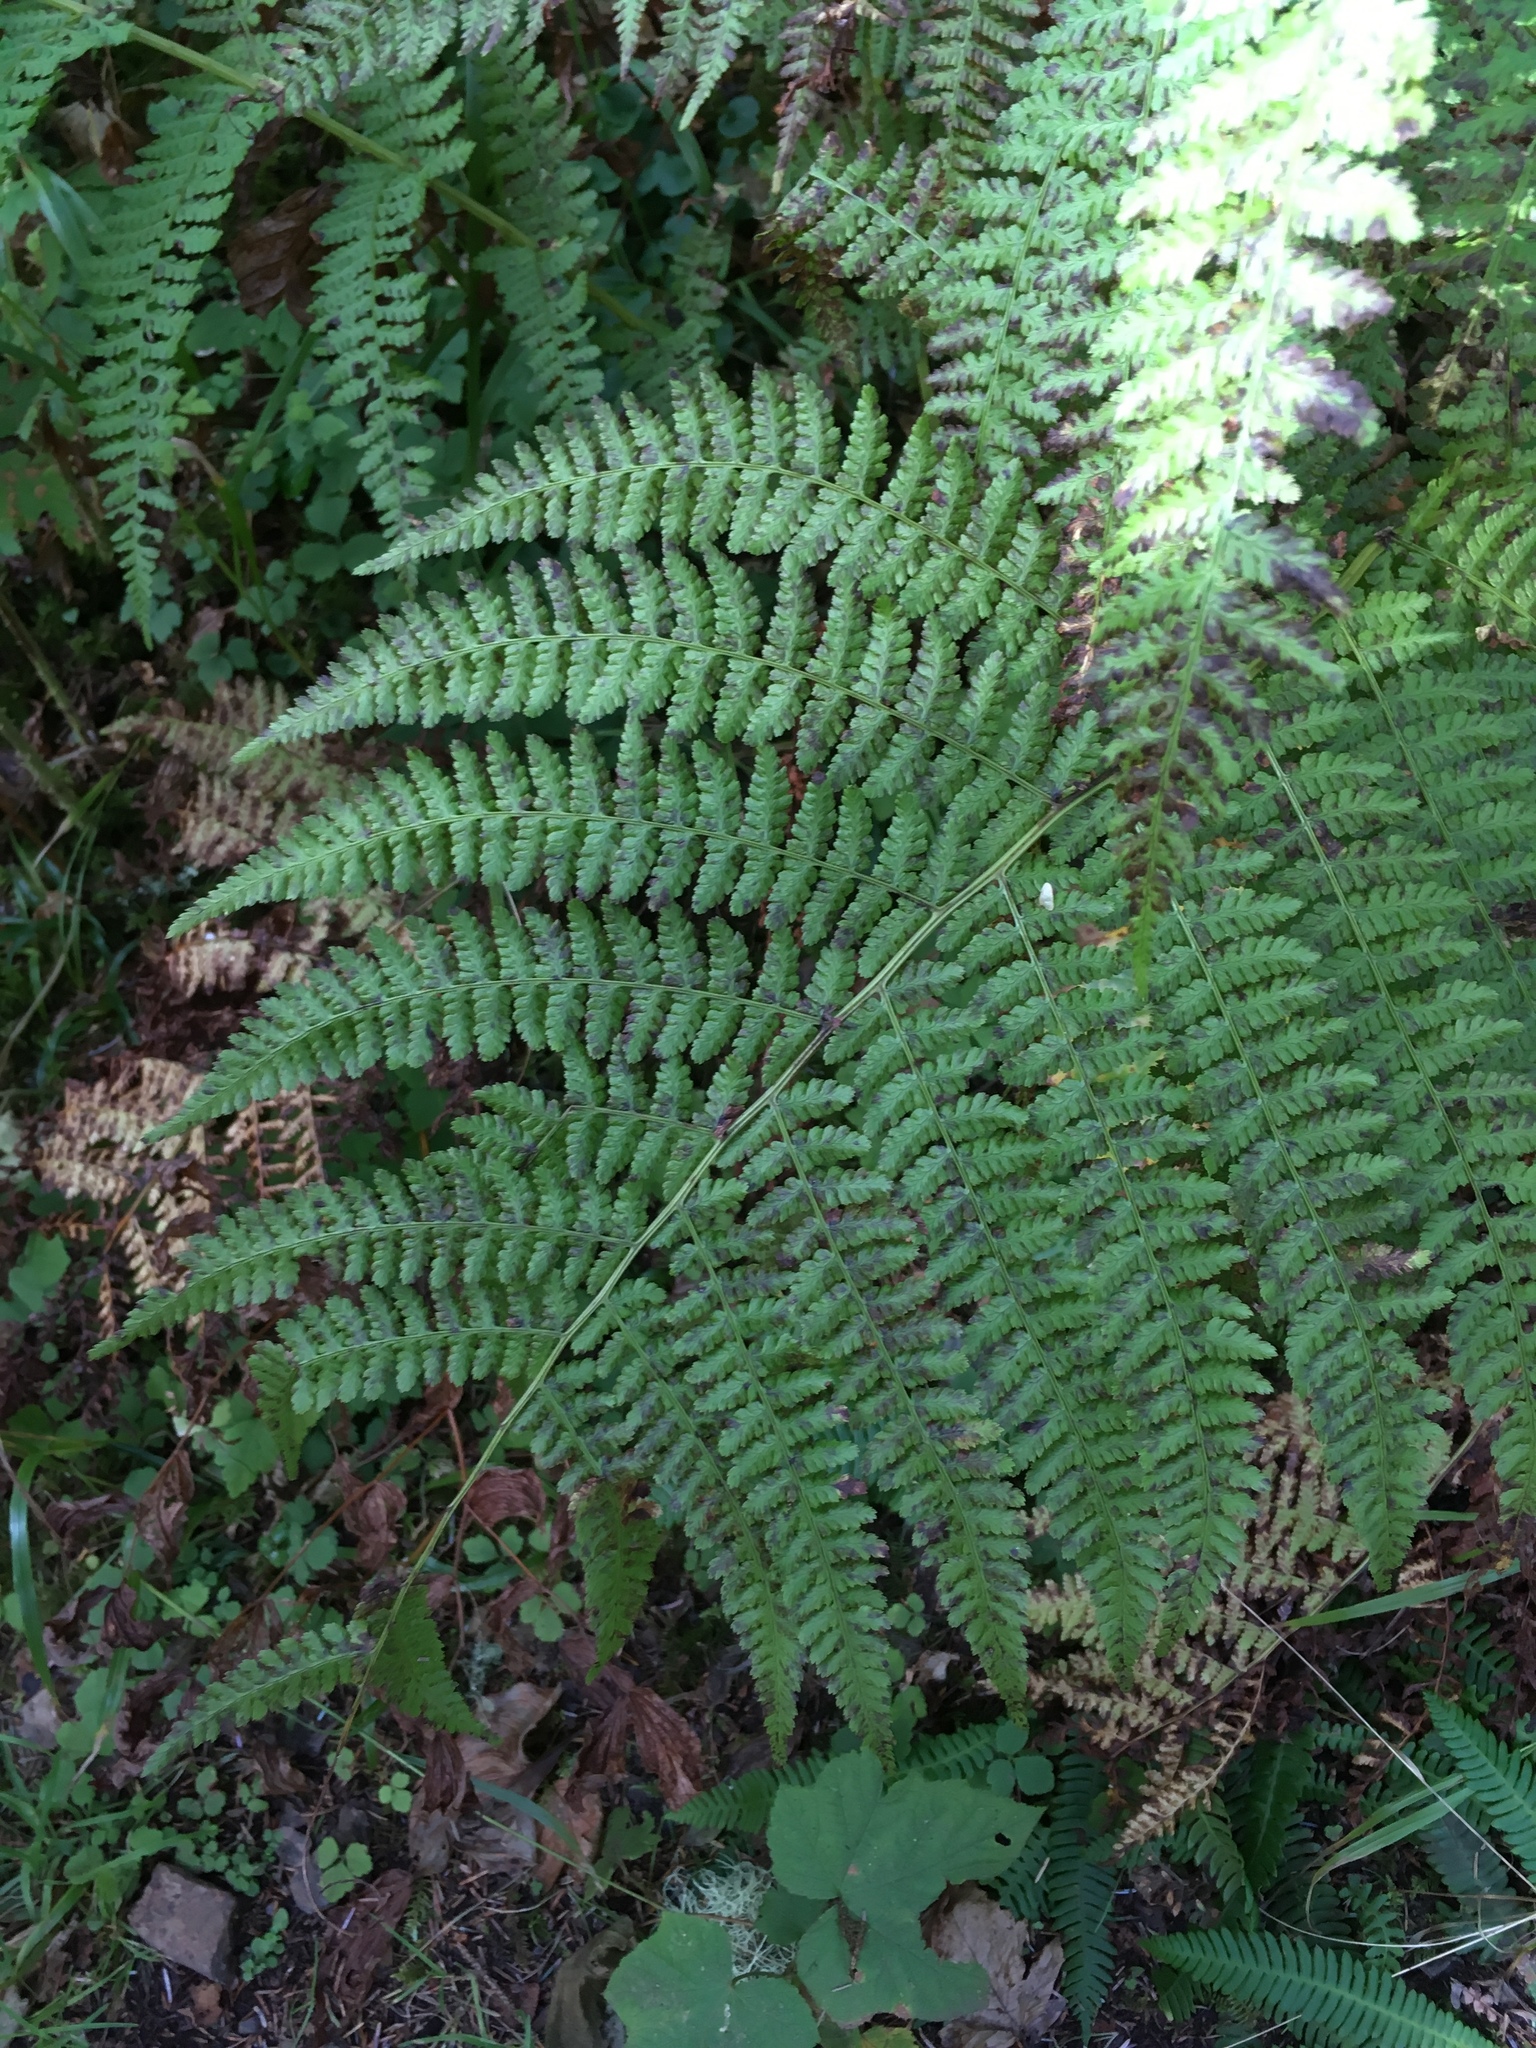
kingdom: Plantae
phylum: Tracheophyta
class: Polypodiopsida
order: Polypodiales
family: Athyriaceae
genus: Athyrium
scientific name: Athyrium filix-femina
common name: Lady fern
